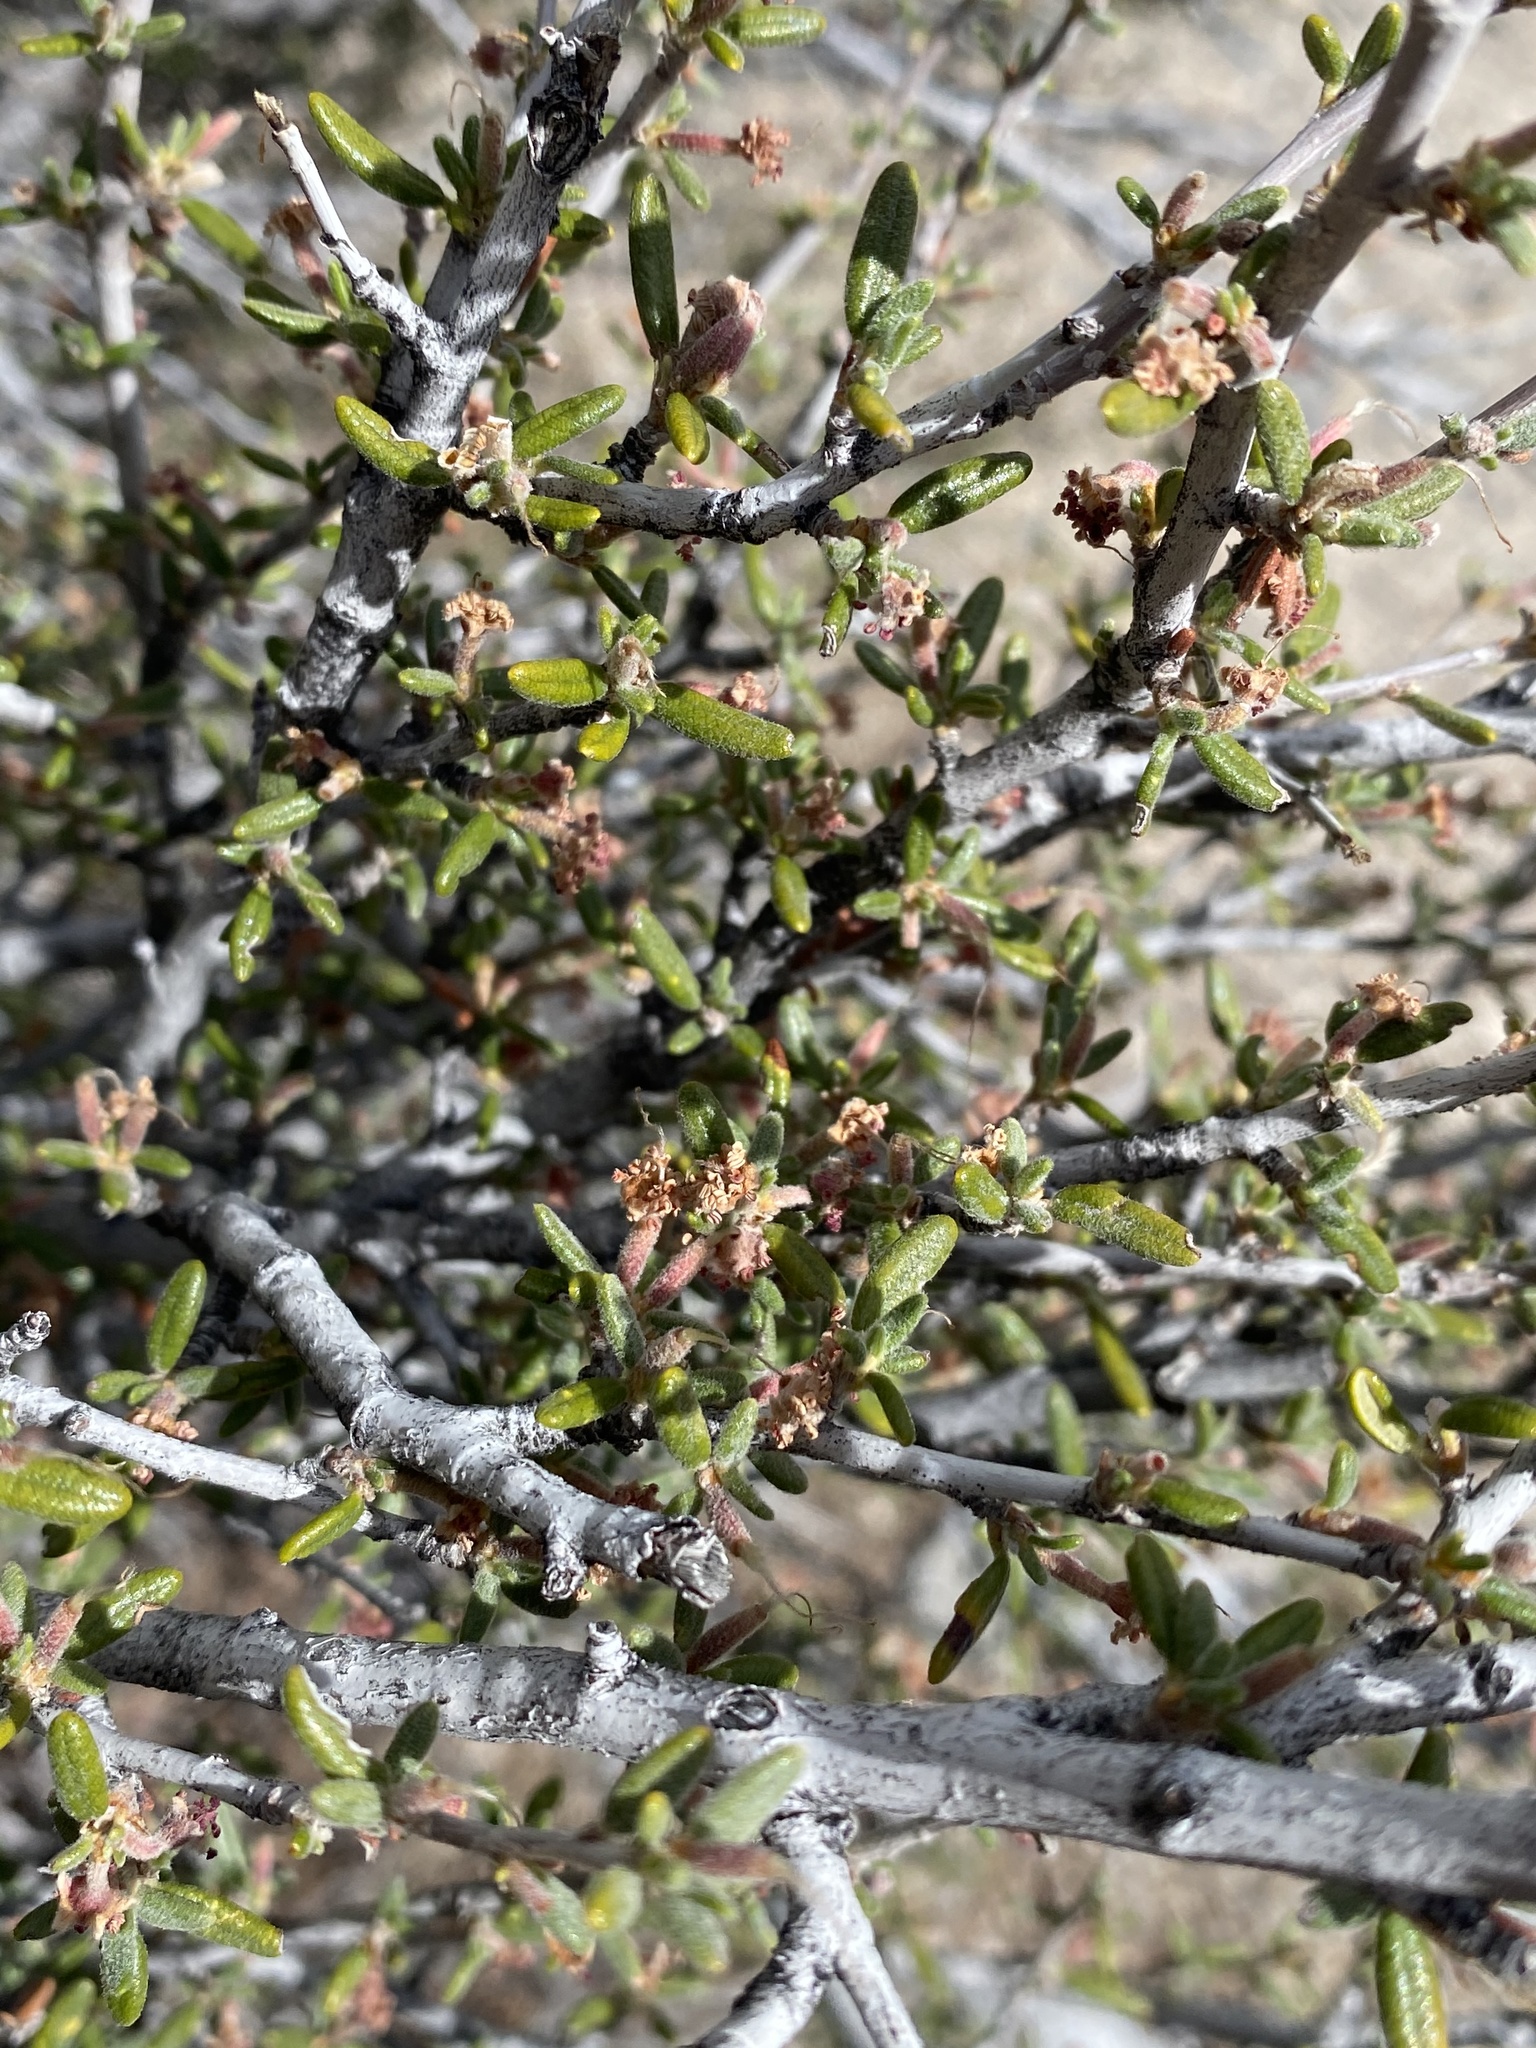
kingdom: Plantae
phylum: Tracheophyta
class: Magnoliopsida
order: Rosales
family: Rosaceae
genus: Cercocarpus
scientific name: Cercocarpus intricatus
